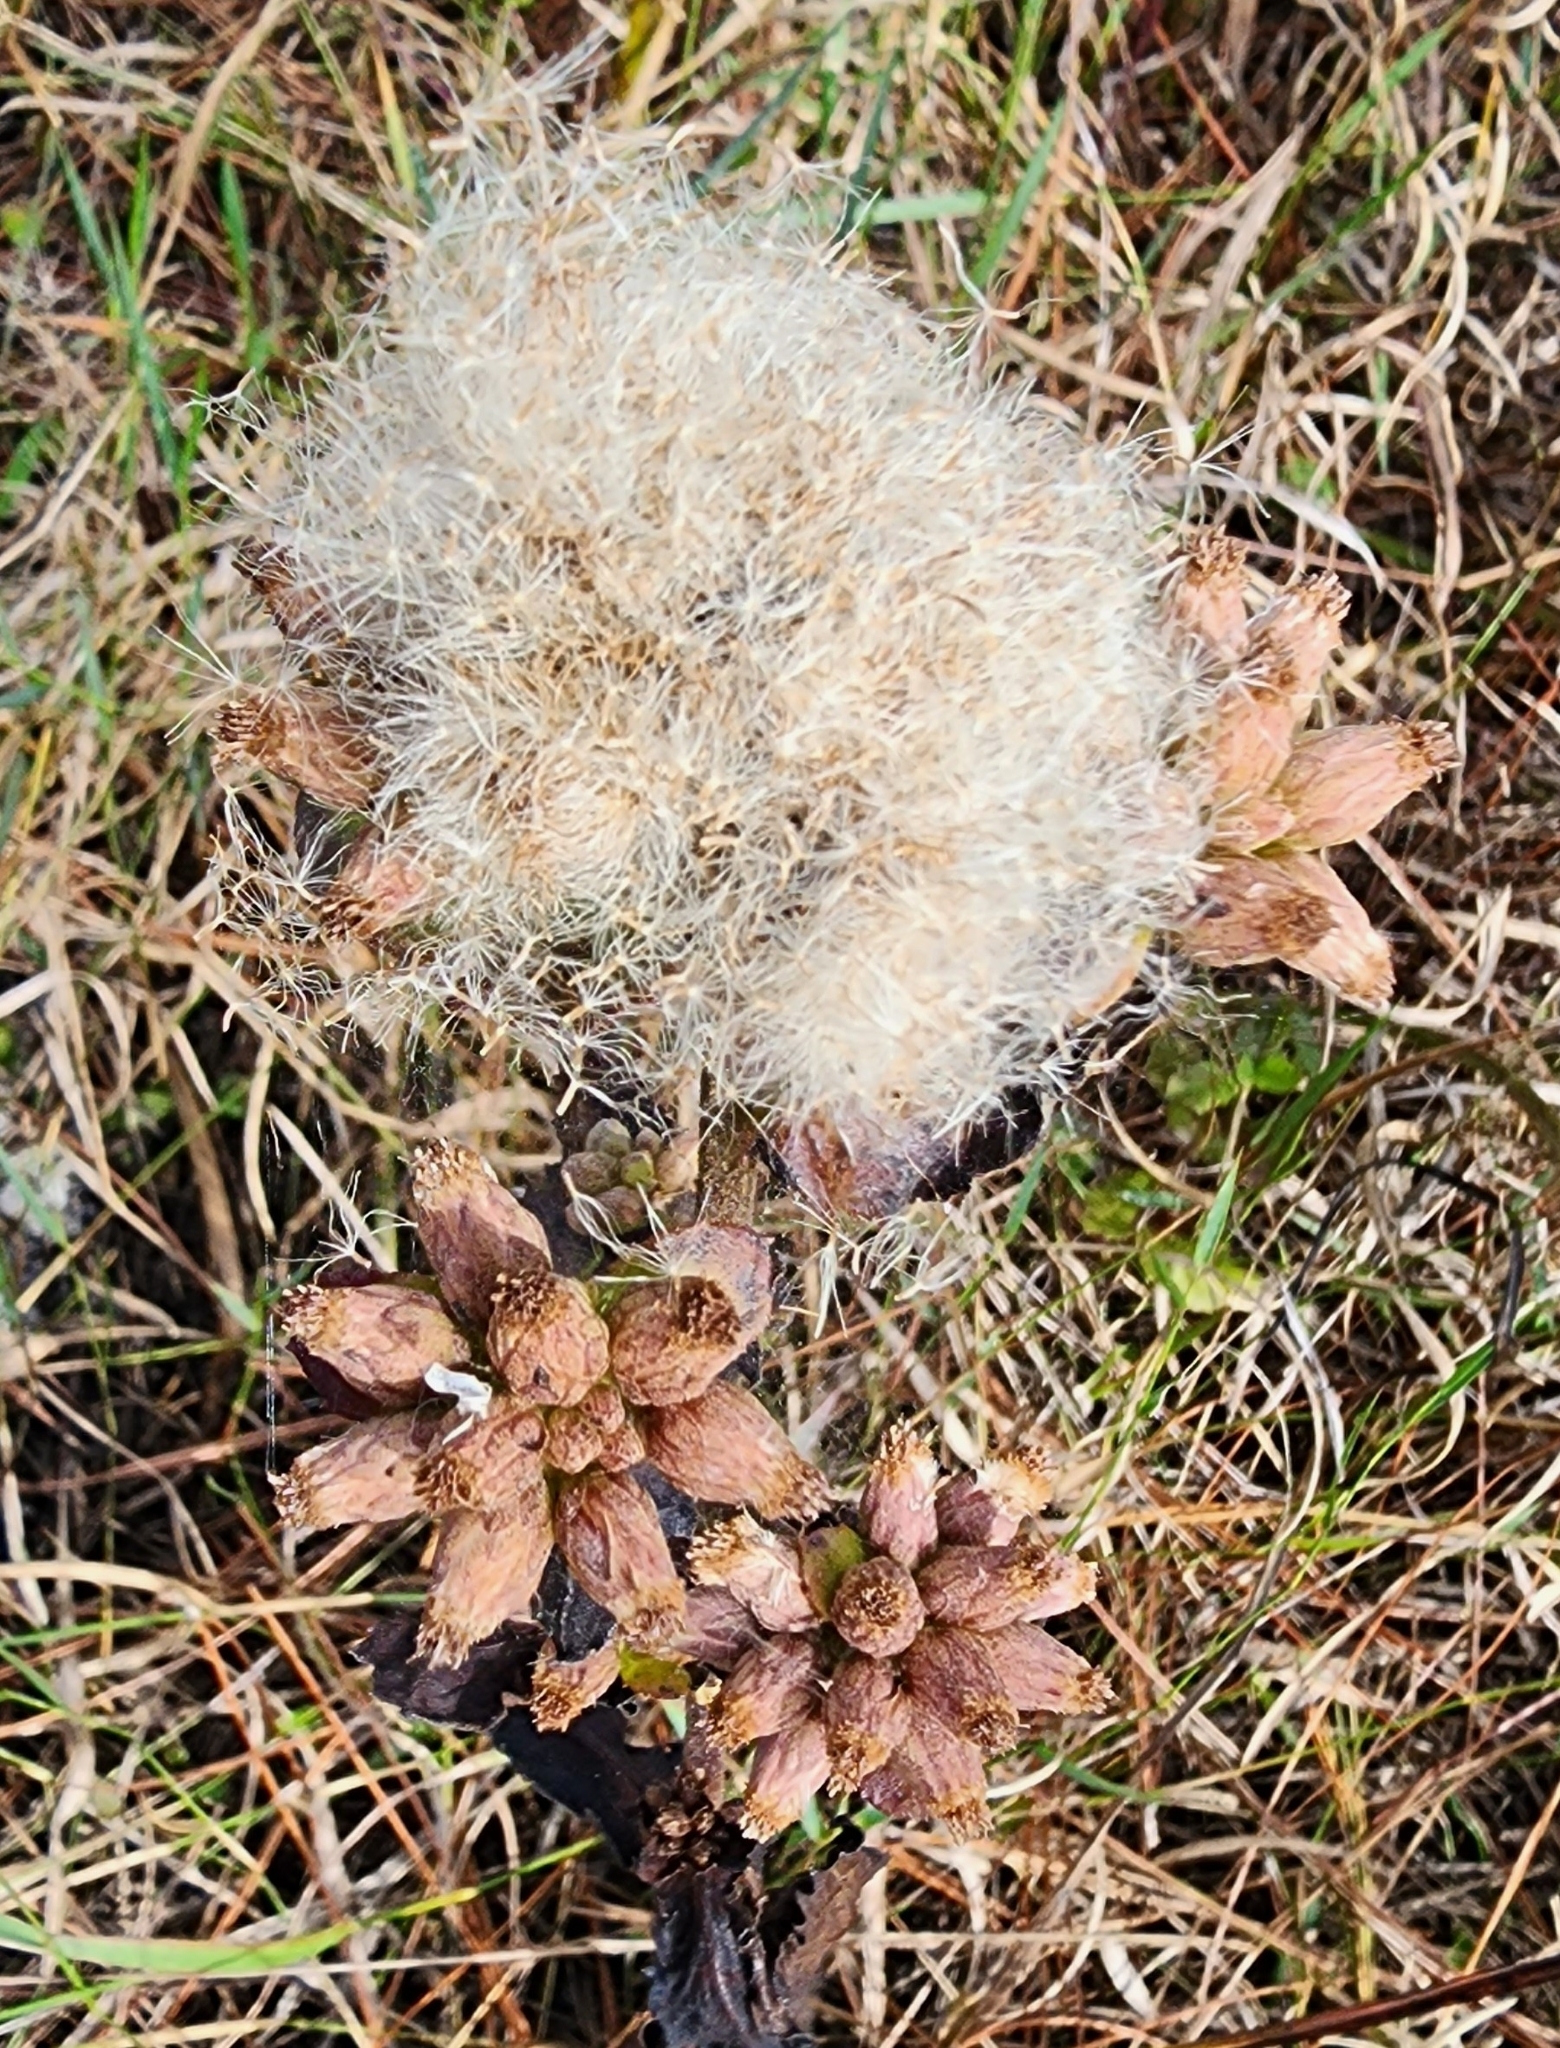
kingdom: Plantae
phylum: Tracheophyta
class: Magnoliopsida
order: Asterales
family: Asteraceae
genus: Pluchea
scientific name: Pluchea foetida
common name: Stinking camphorweed
